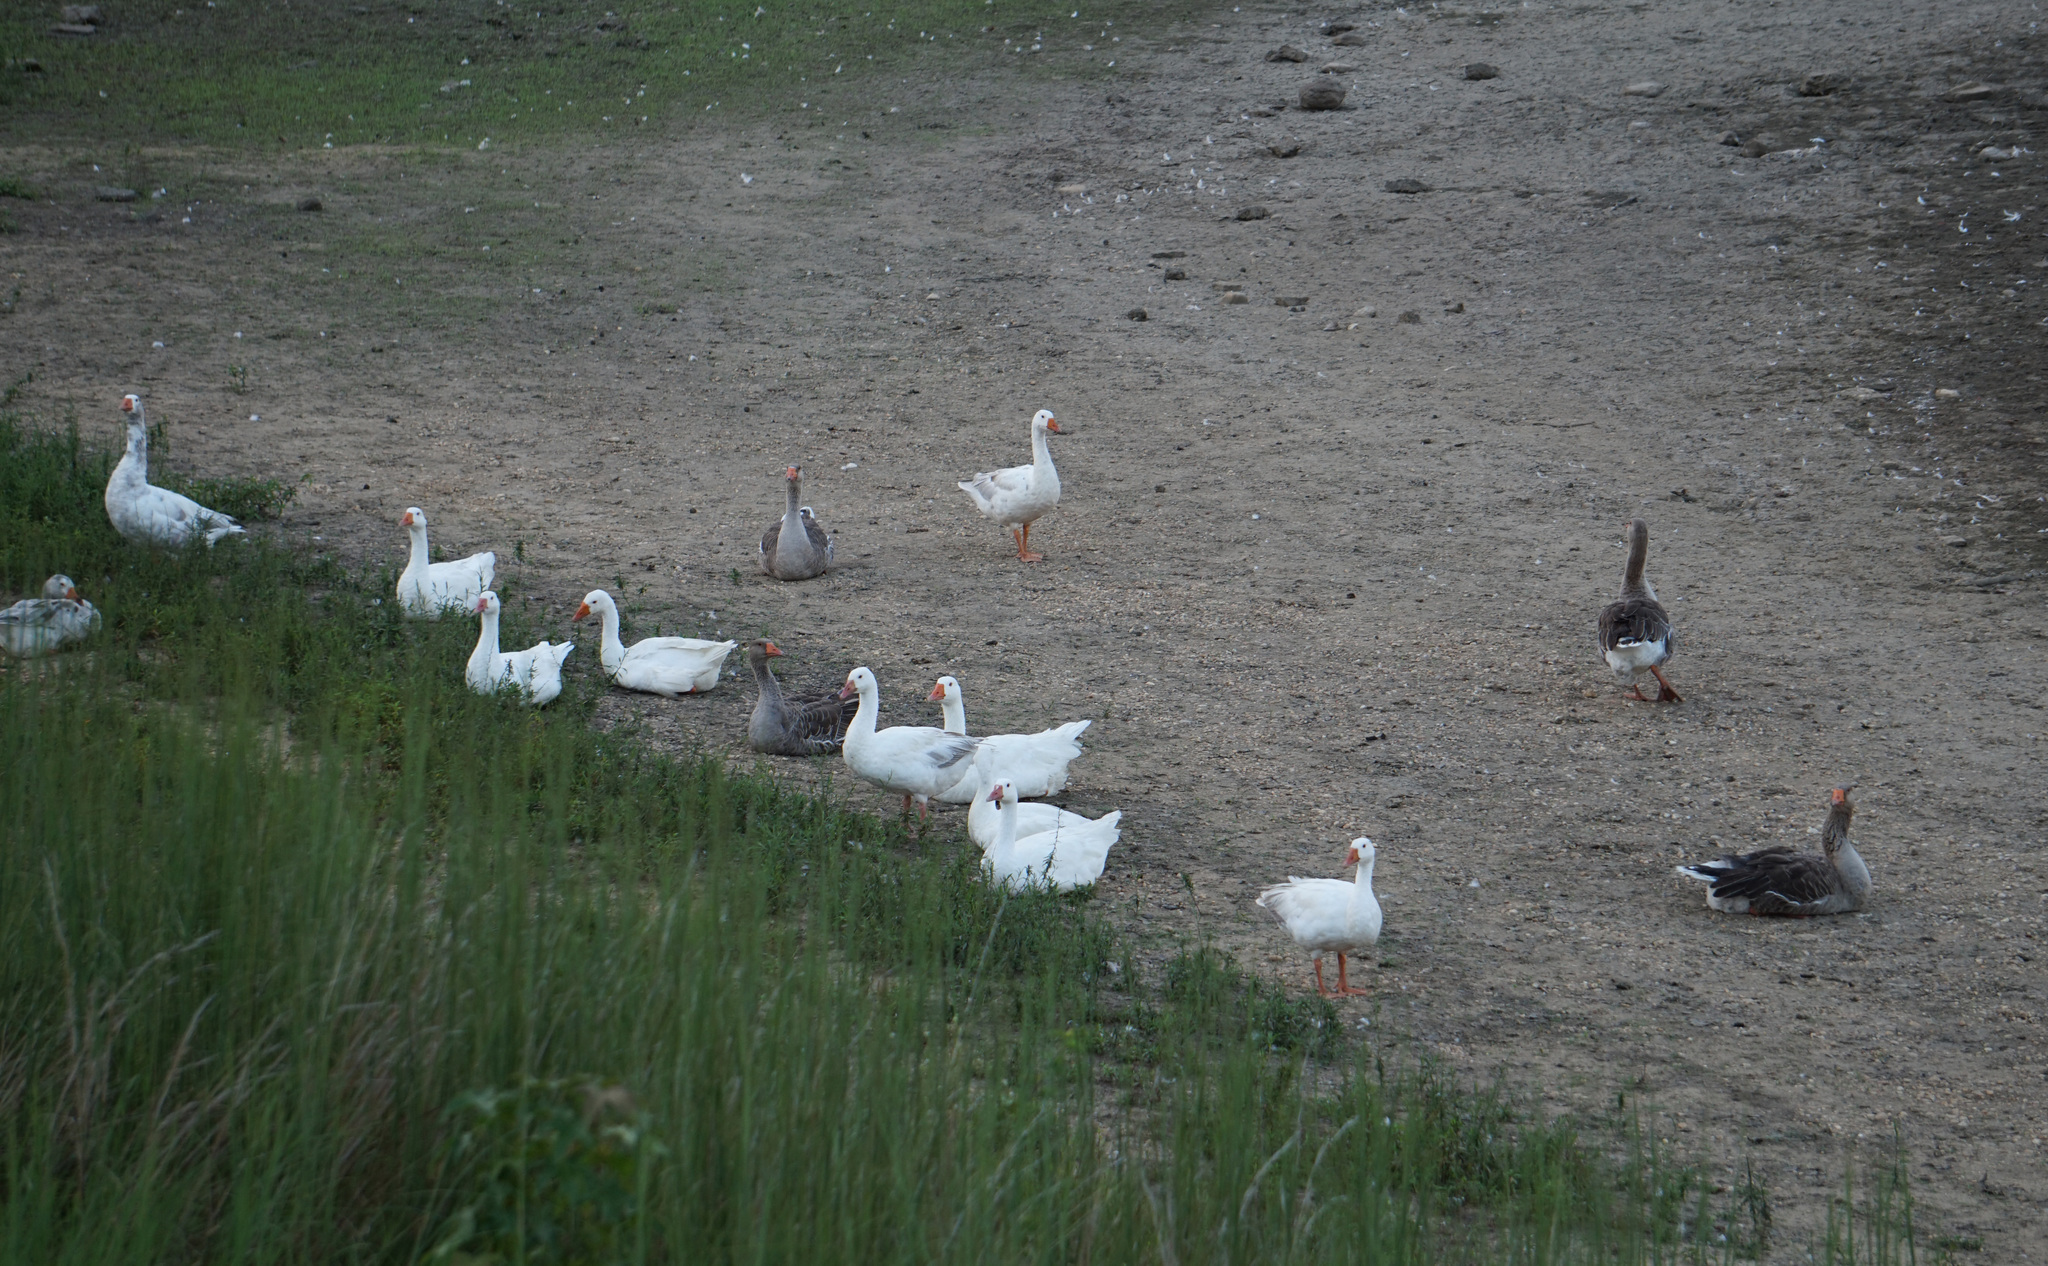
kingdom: Animalia
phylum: Chordata
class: Aves
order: Anseriformes
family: Anatidae
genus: Anser
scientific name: Anser anser
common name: Greylag goose
